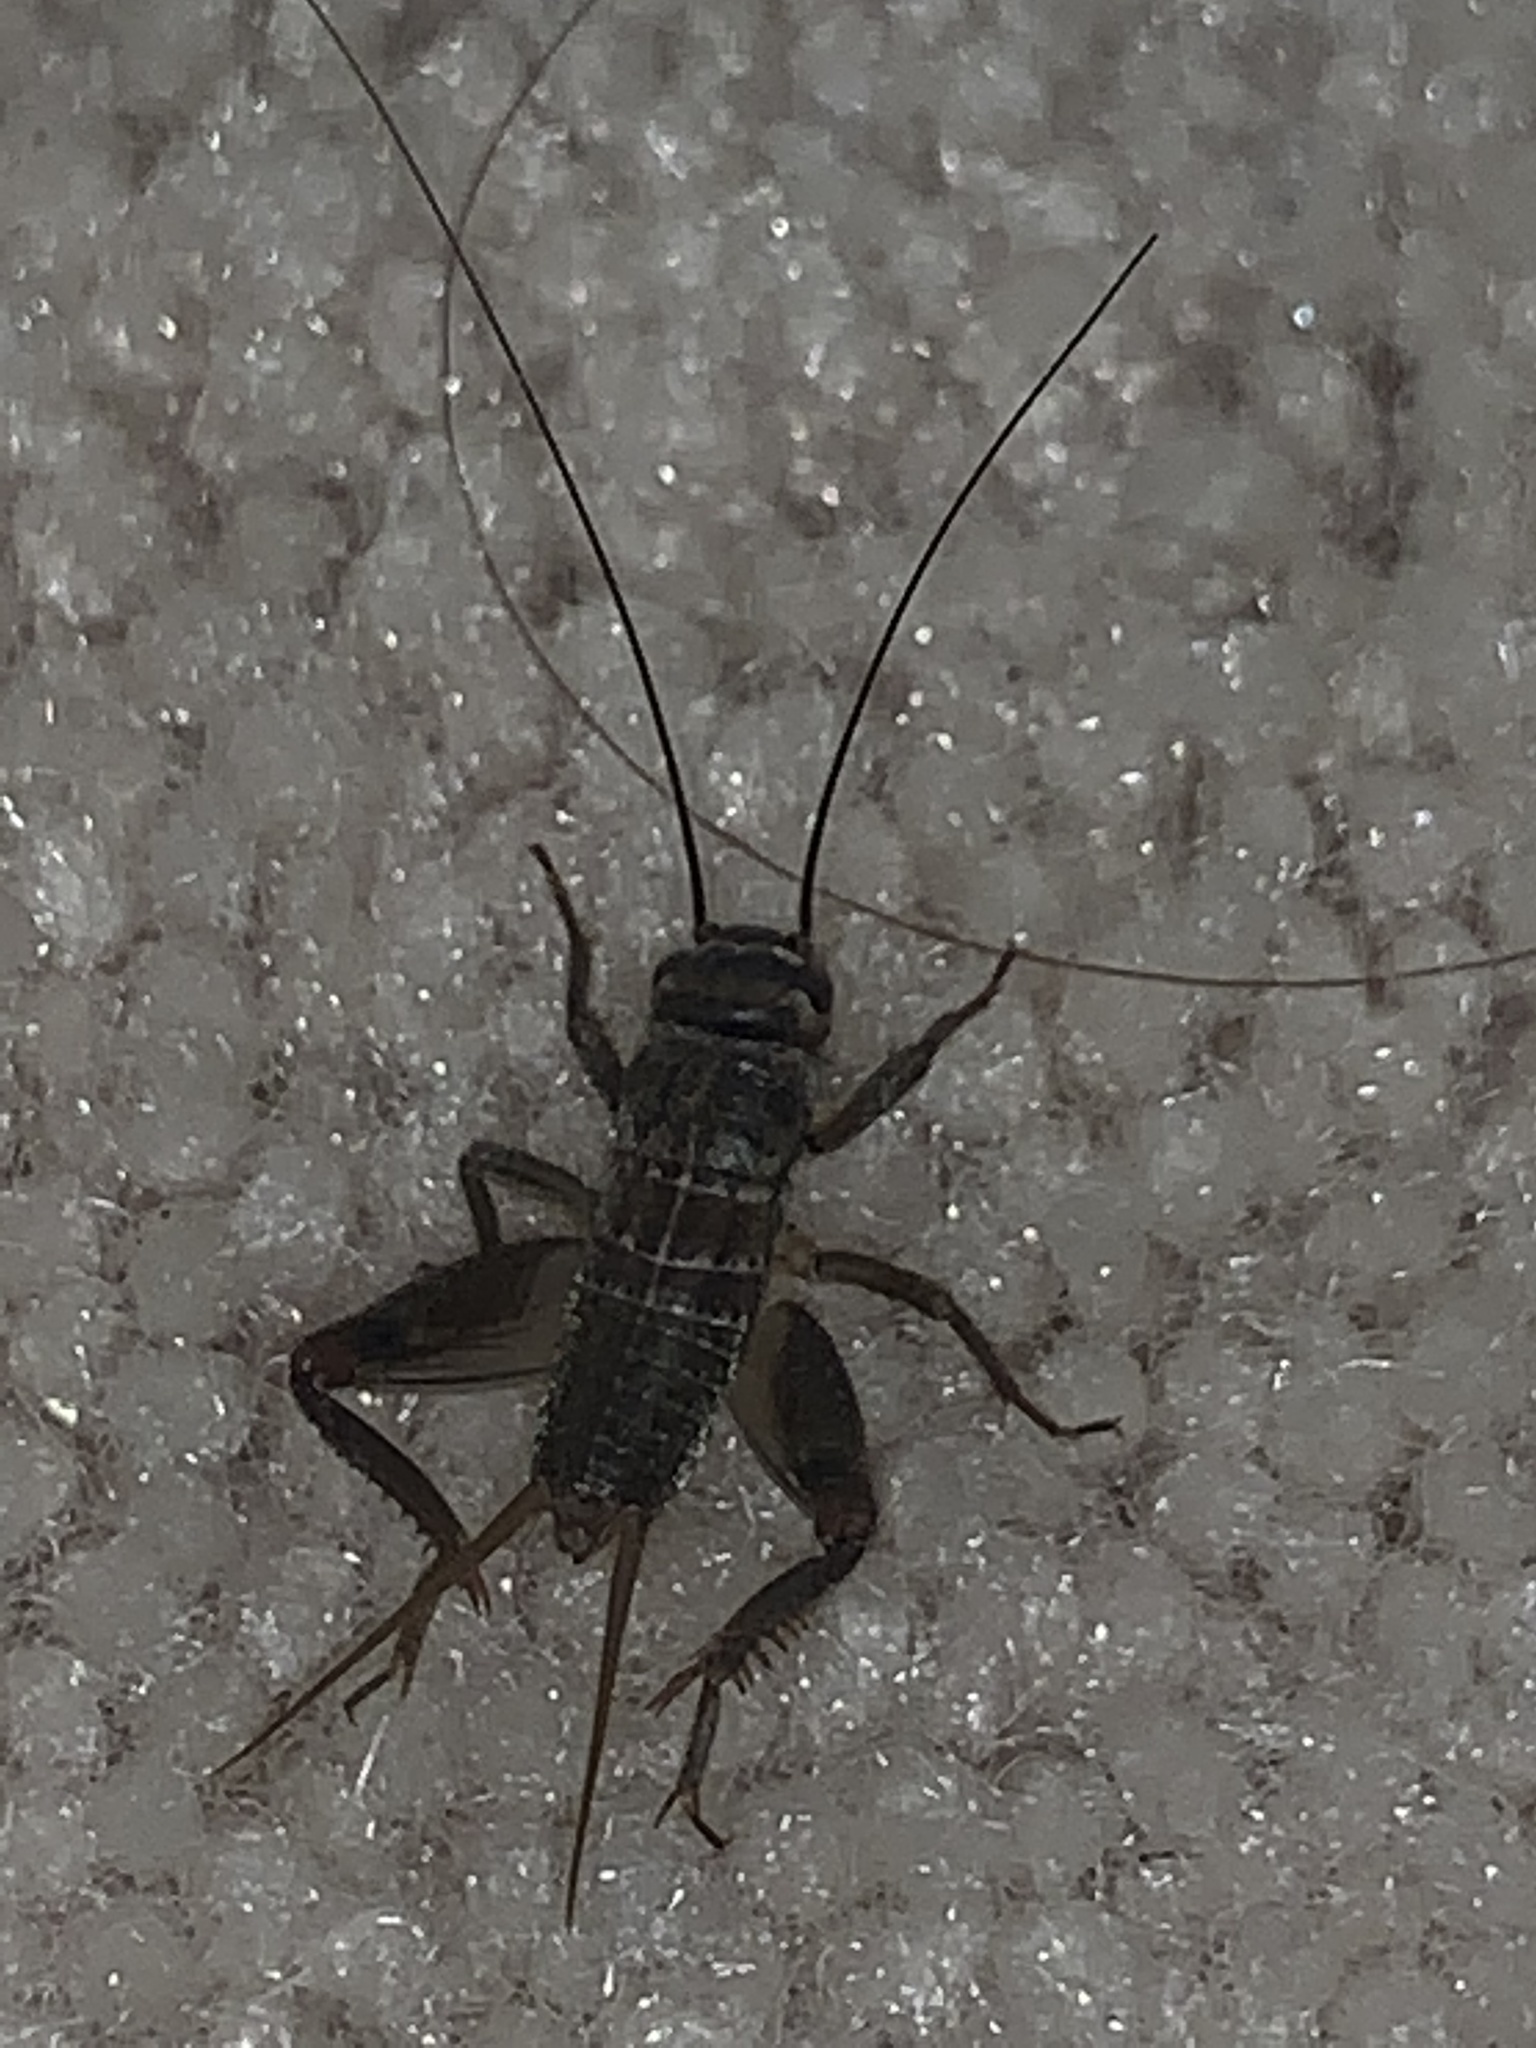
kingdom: Animalia
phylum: Arthropoda
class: Insecta
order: Orthoptera
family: Gryllidae
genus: Acheta
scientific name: Acheta domesticus
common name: House cricket
